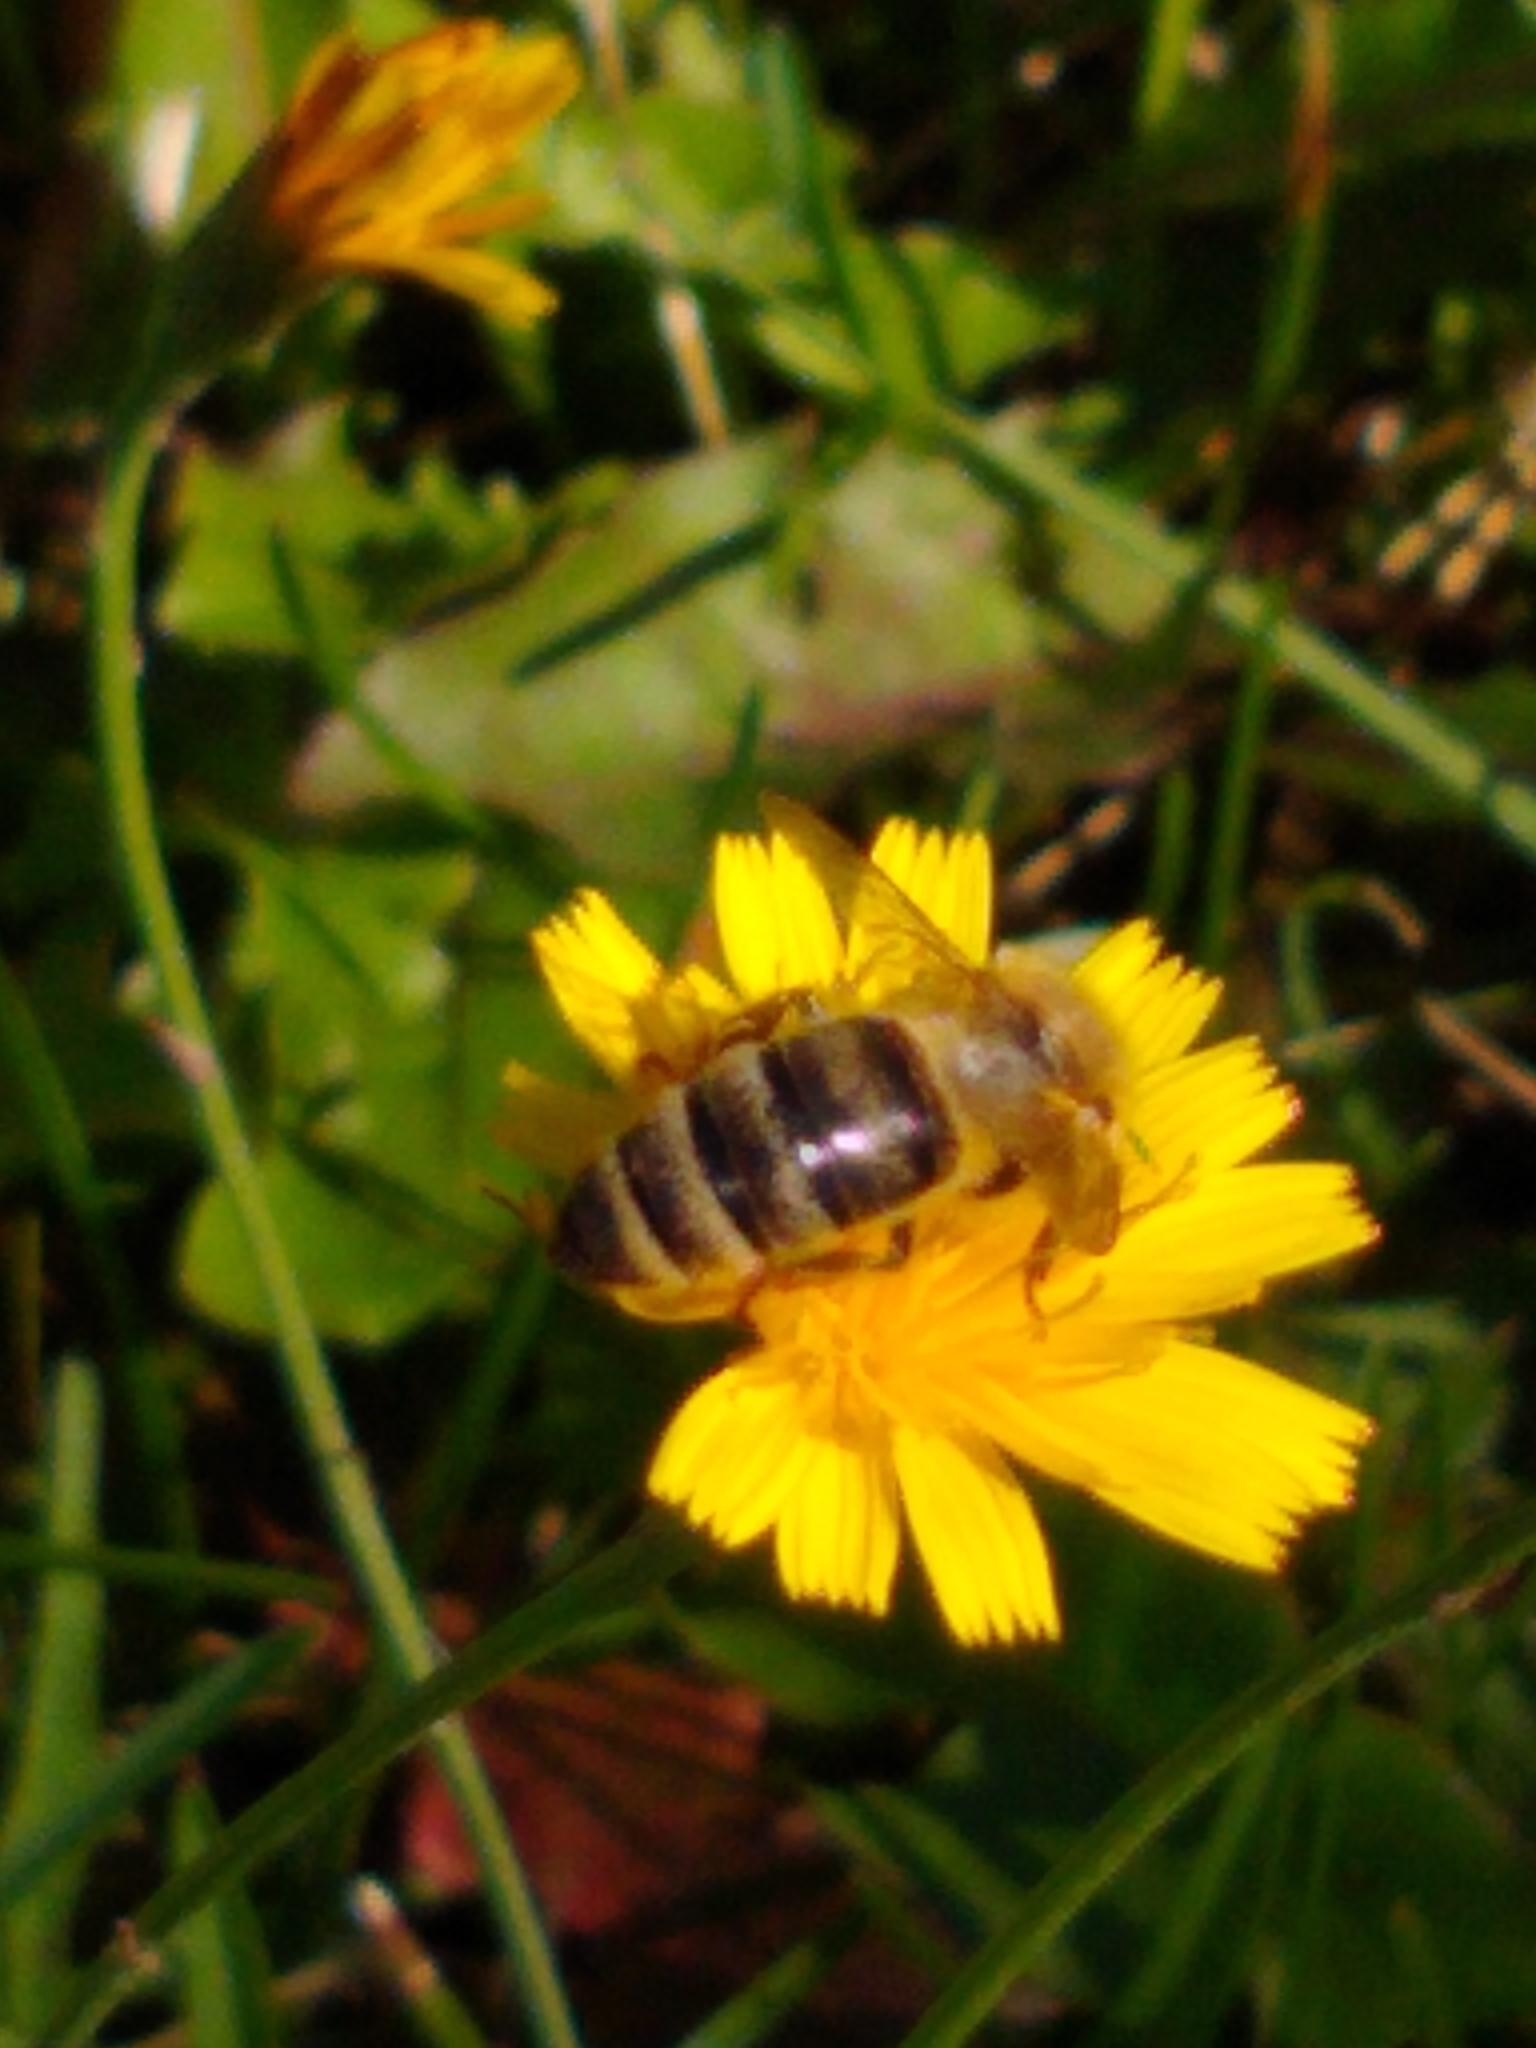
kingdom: Animalia
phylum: Arthropoda
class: Insecta
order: Hymenoptera
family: Apidae
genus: Apis
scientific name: Apis mellifera
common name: Honey bee
